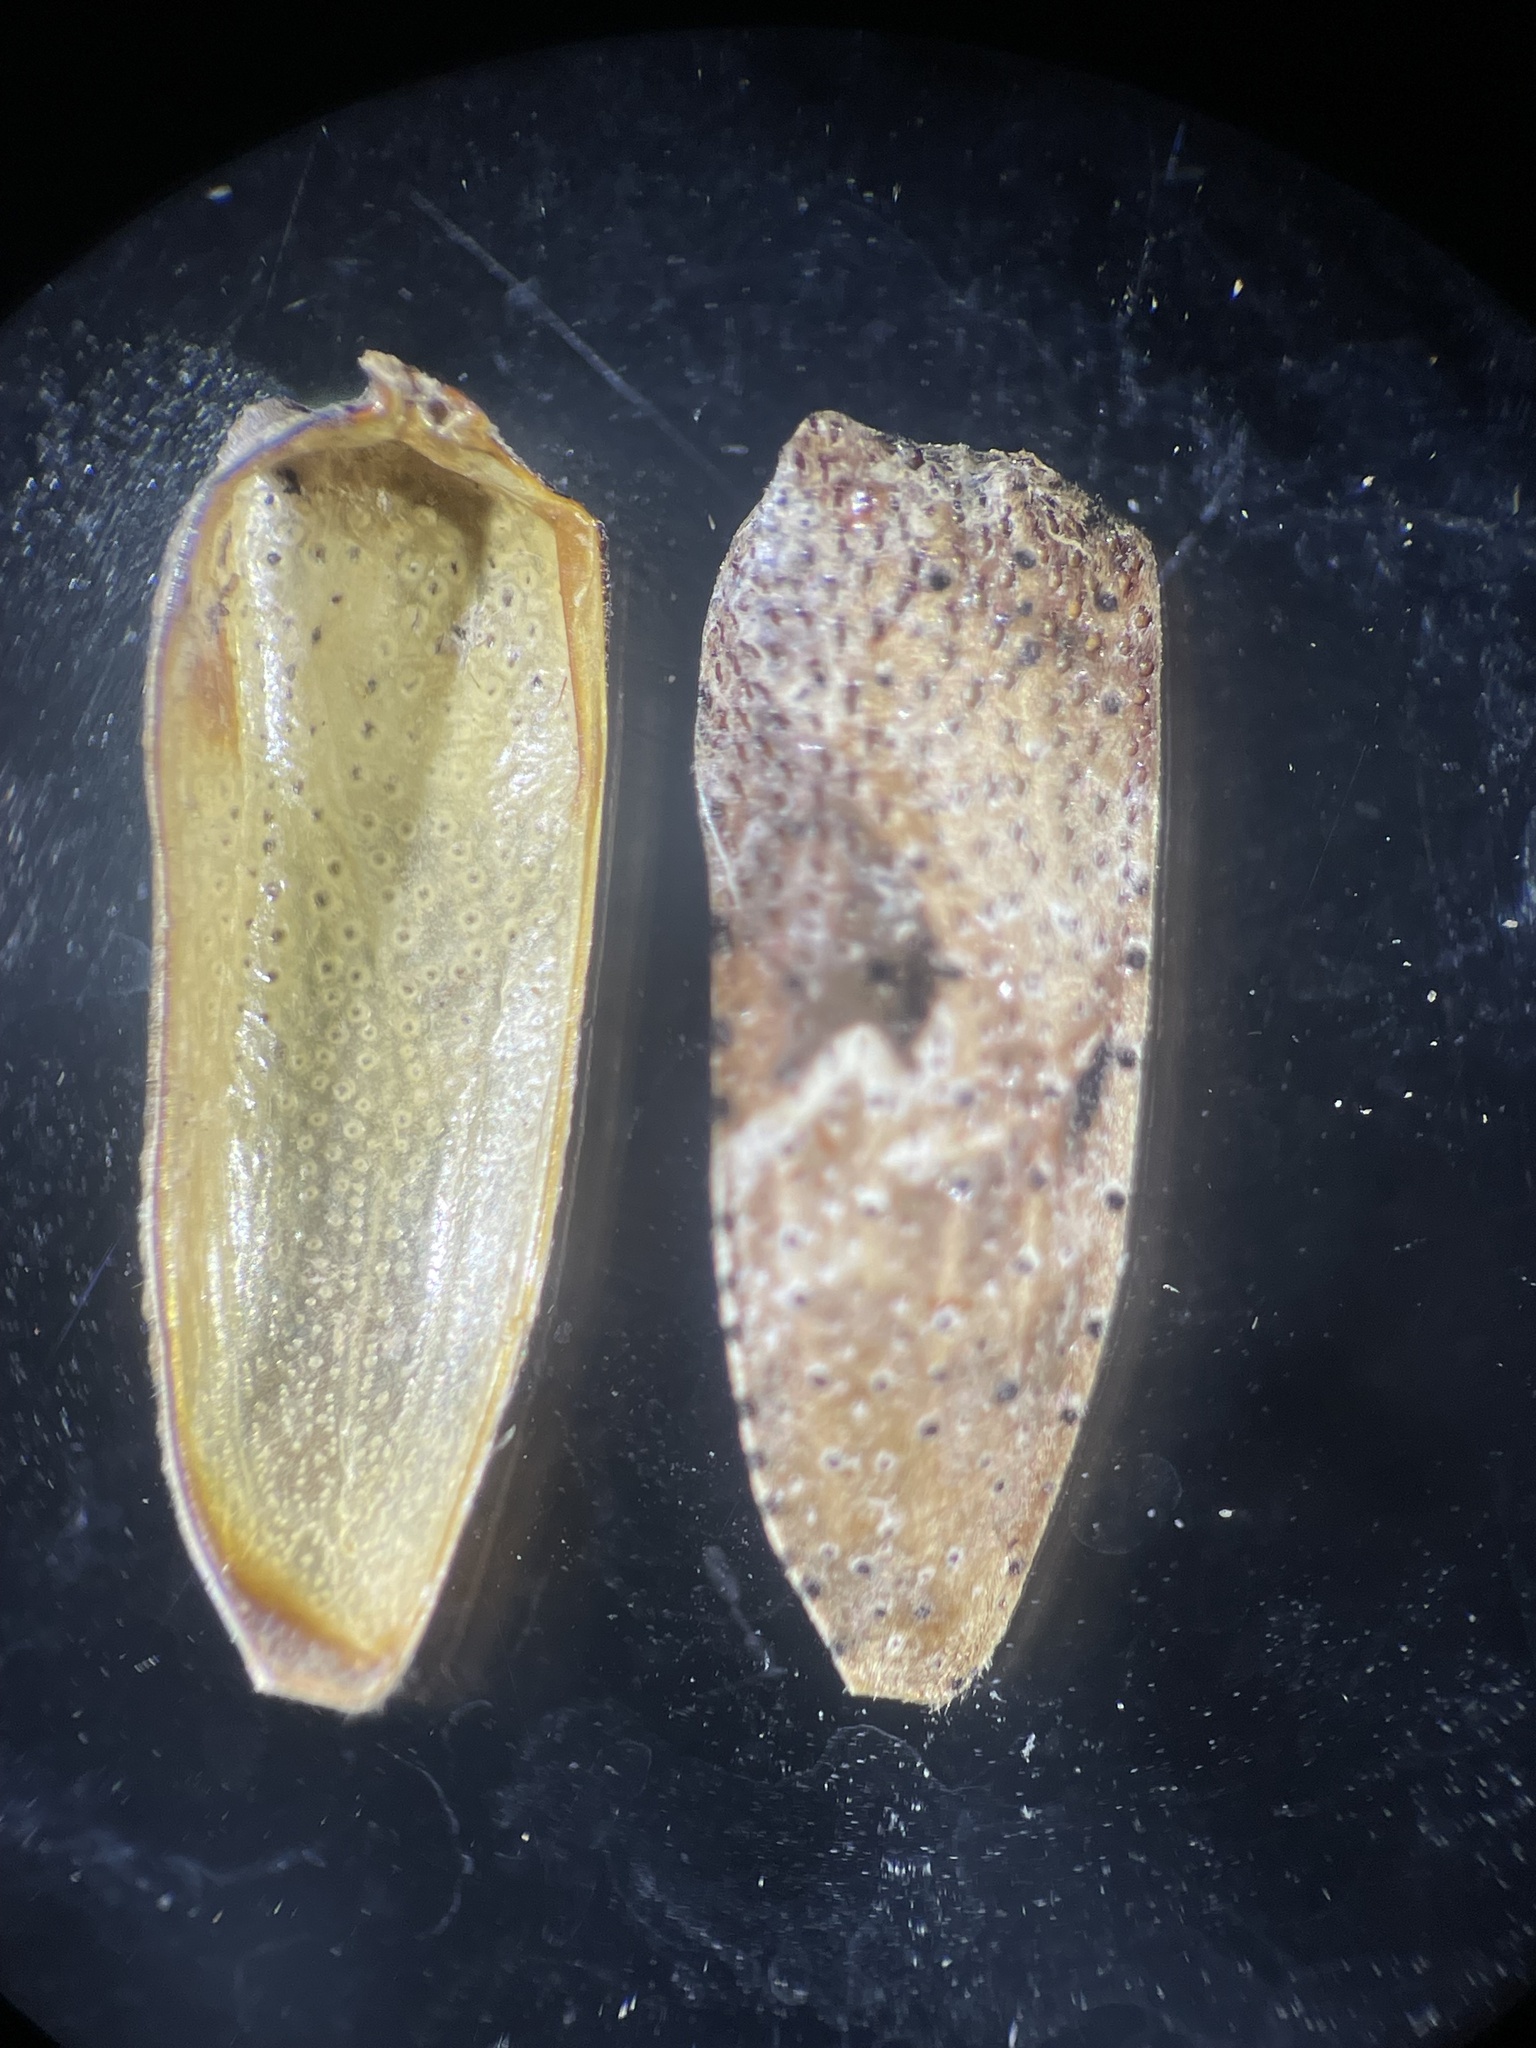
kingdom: Animalia
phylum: Arthropoda
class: Insecta
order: Coleoptera
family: Cerambycidae
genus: Lagocheirus
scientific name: Lagocheirus araneiformis
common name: Beetle
